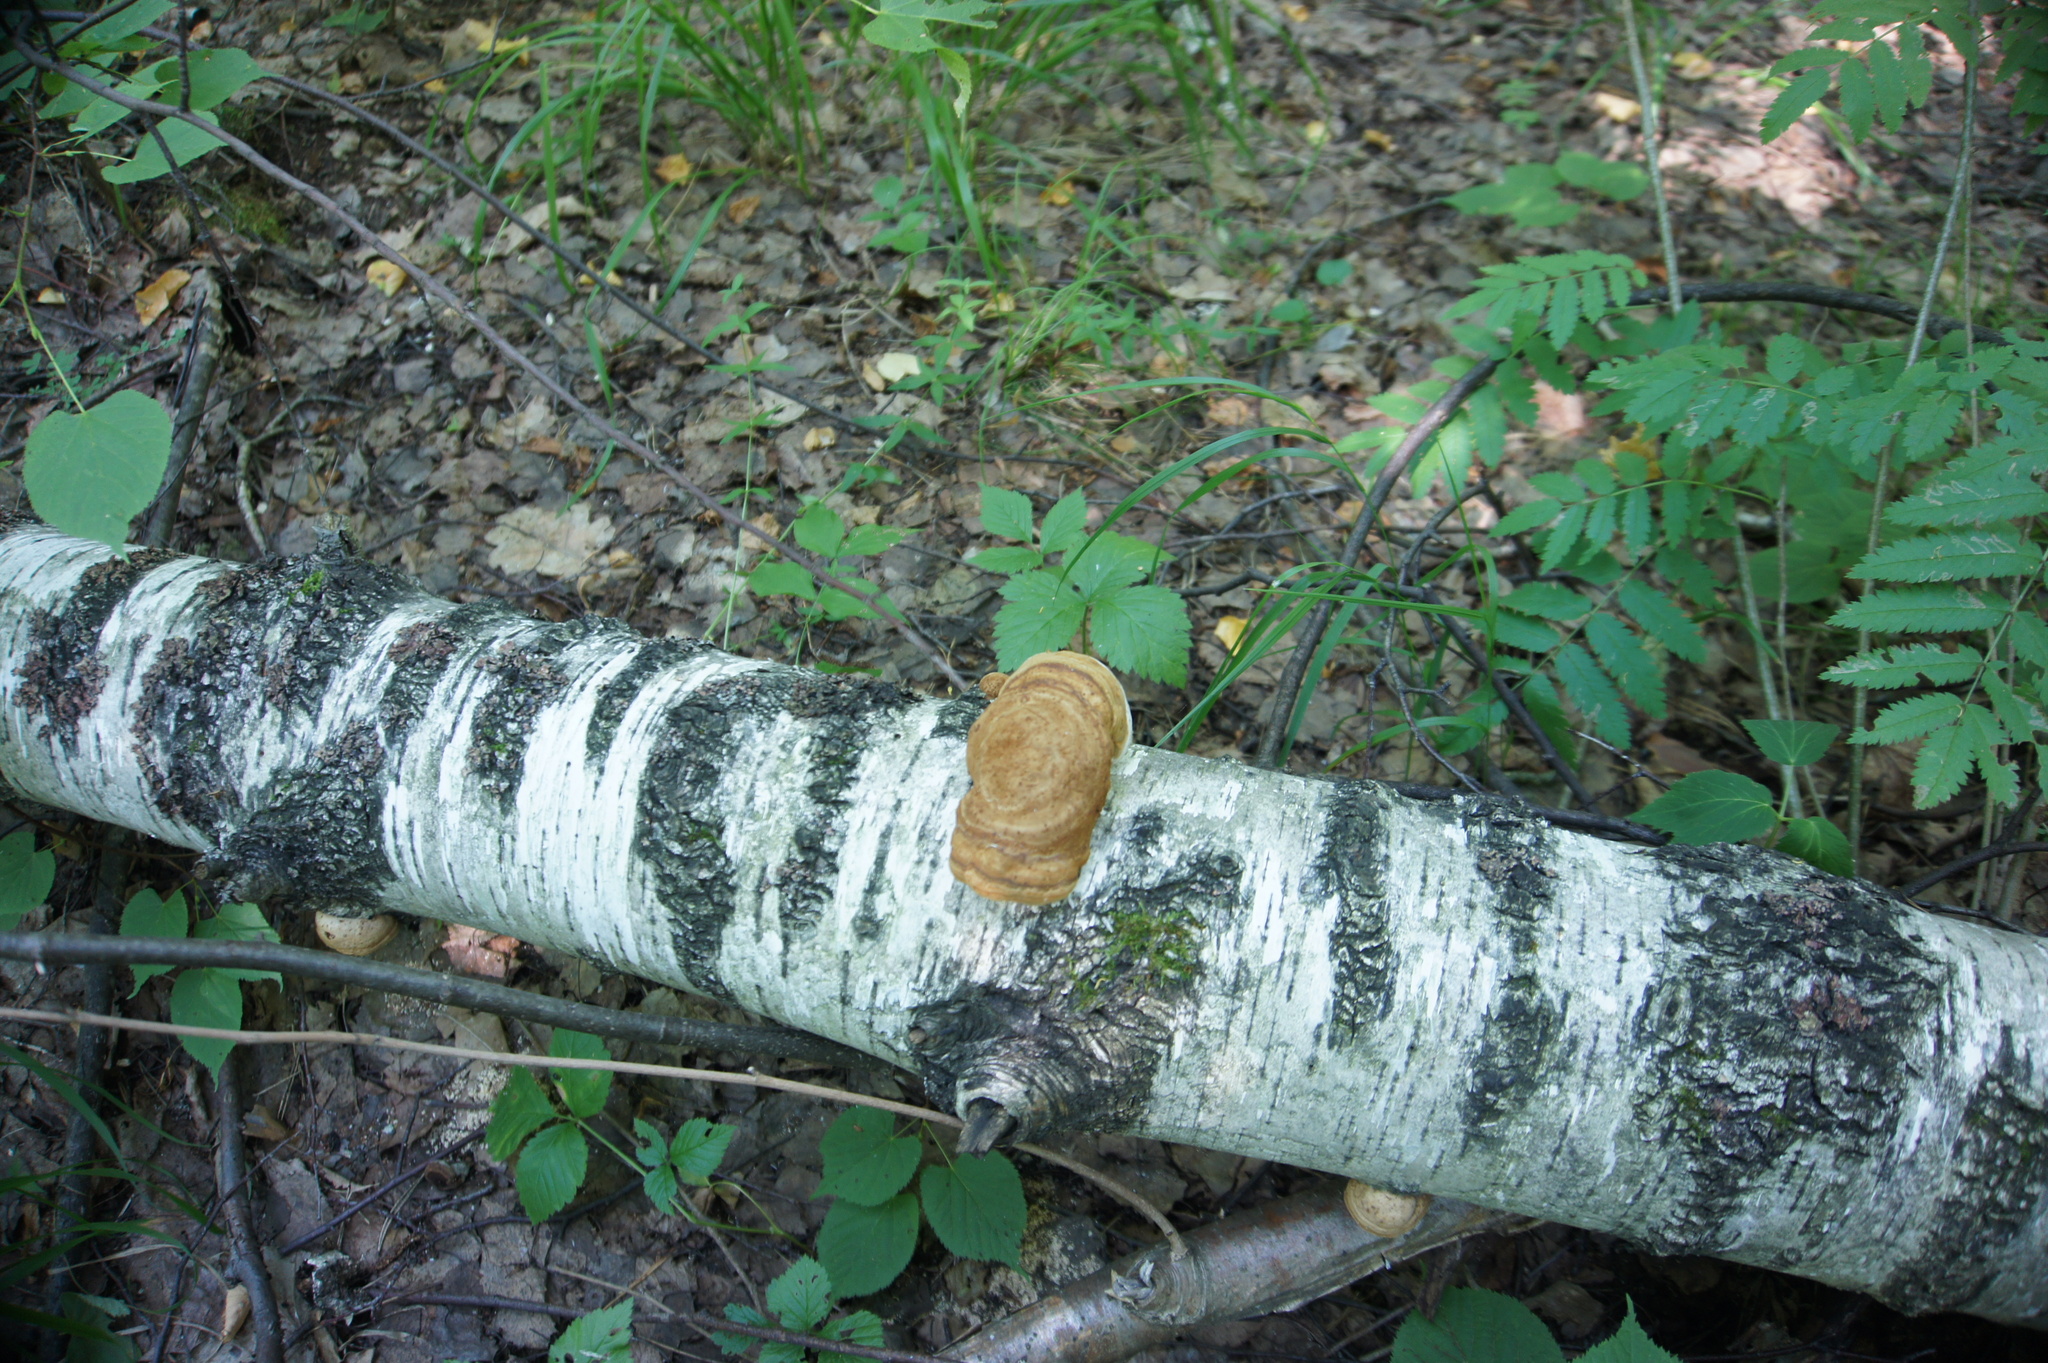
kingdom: Plantae
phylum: Tracheophyta
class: Magnoliopsida
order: Rosales
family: Rosaceae
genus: Sorbus
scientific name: Sorbus aucuparia
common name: Rowan
